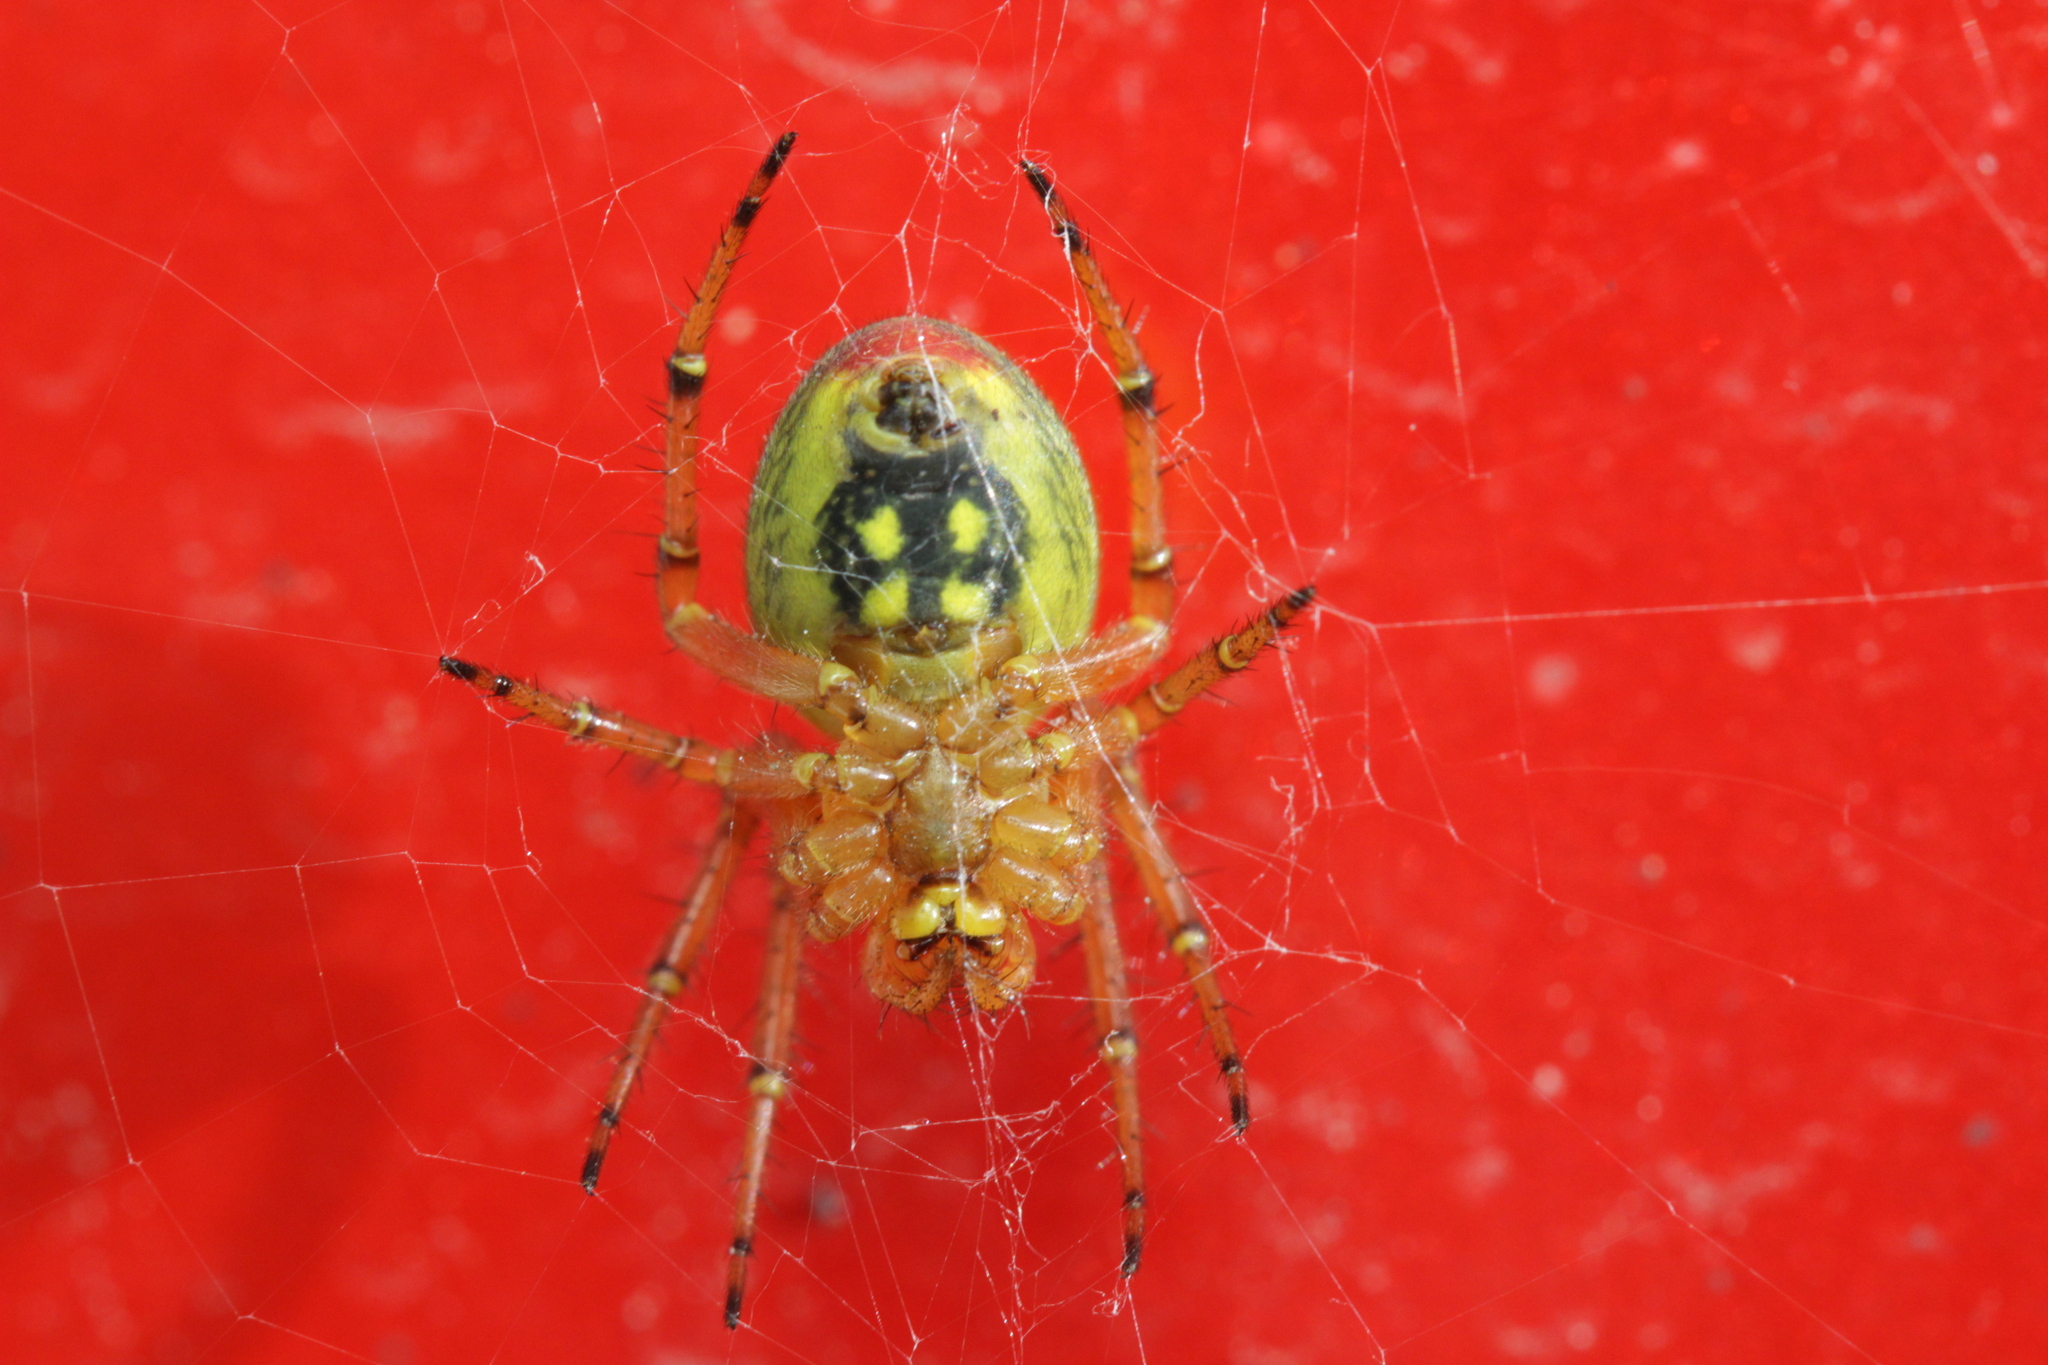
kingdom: Animalia
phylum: Arthropoda
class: Arachnida
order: Araneae
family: Araneidae
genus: Araniella
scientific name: Araniella alpica
